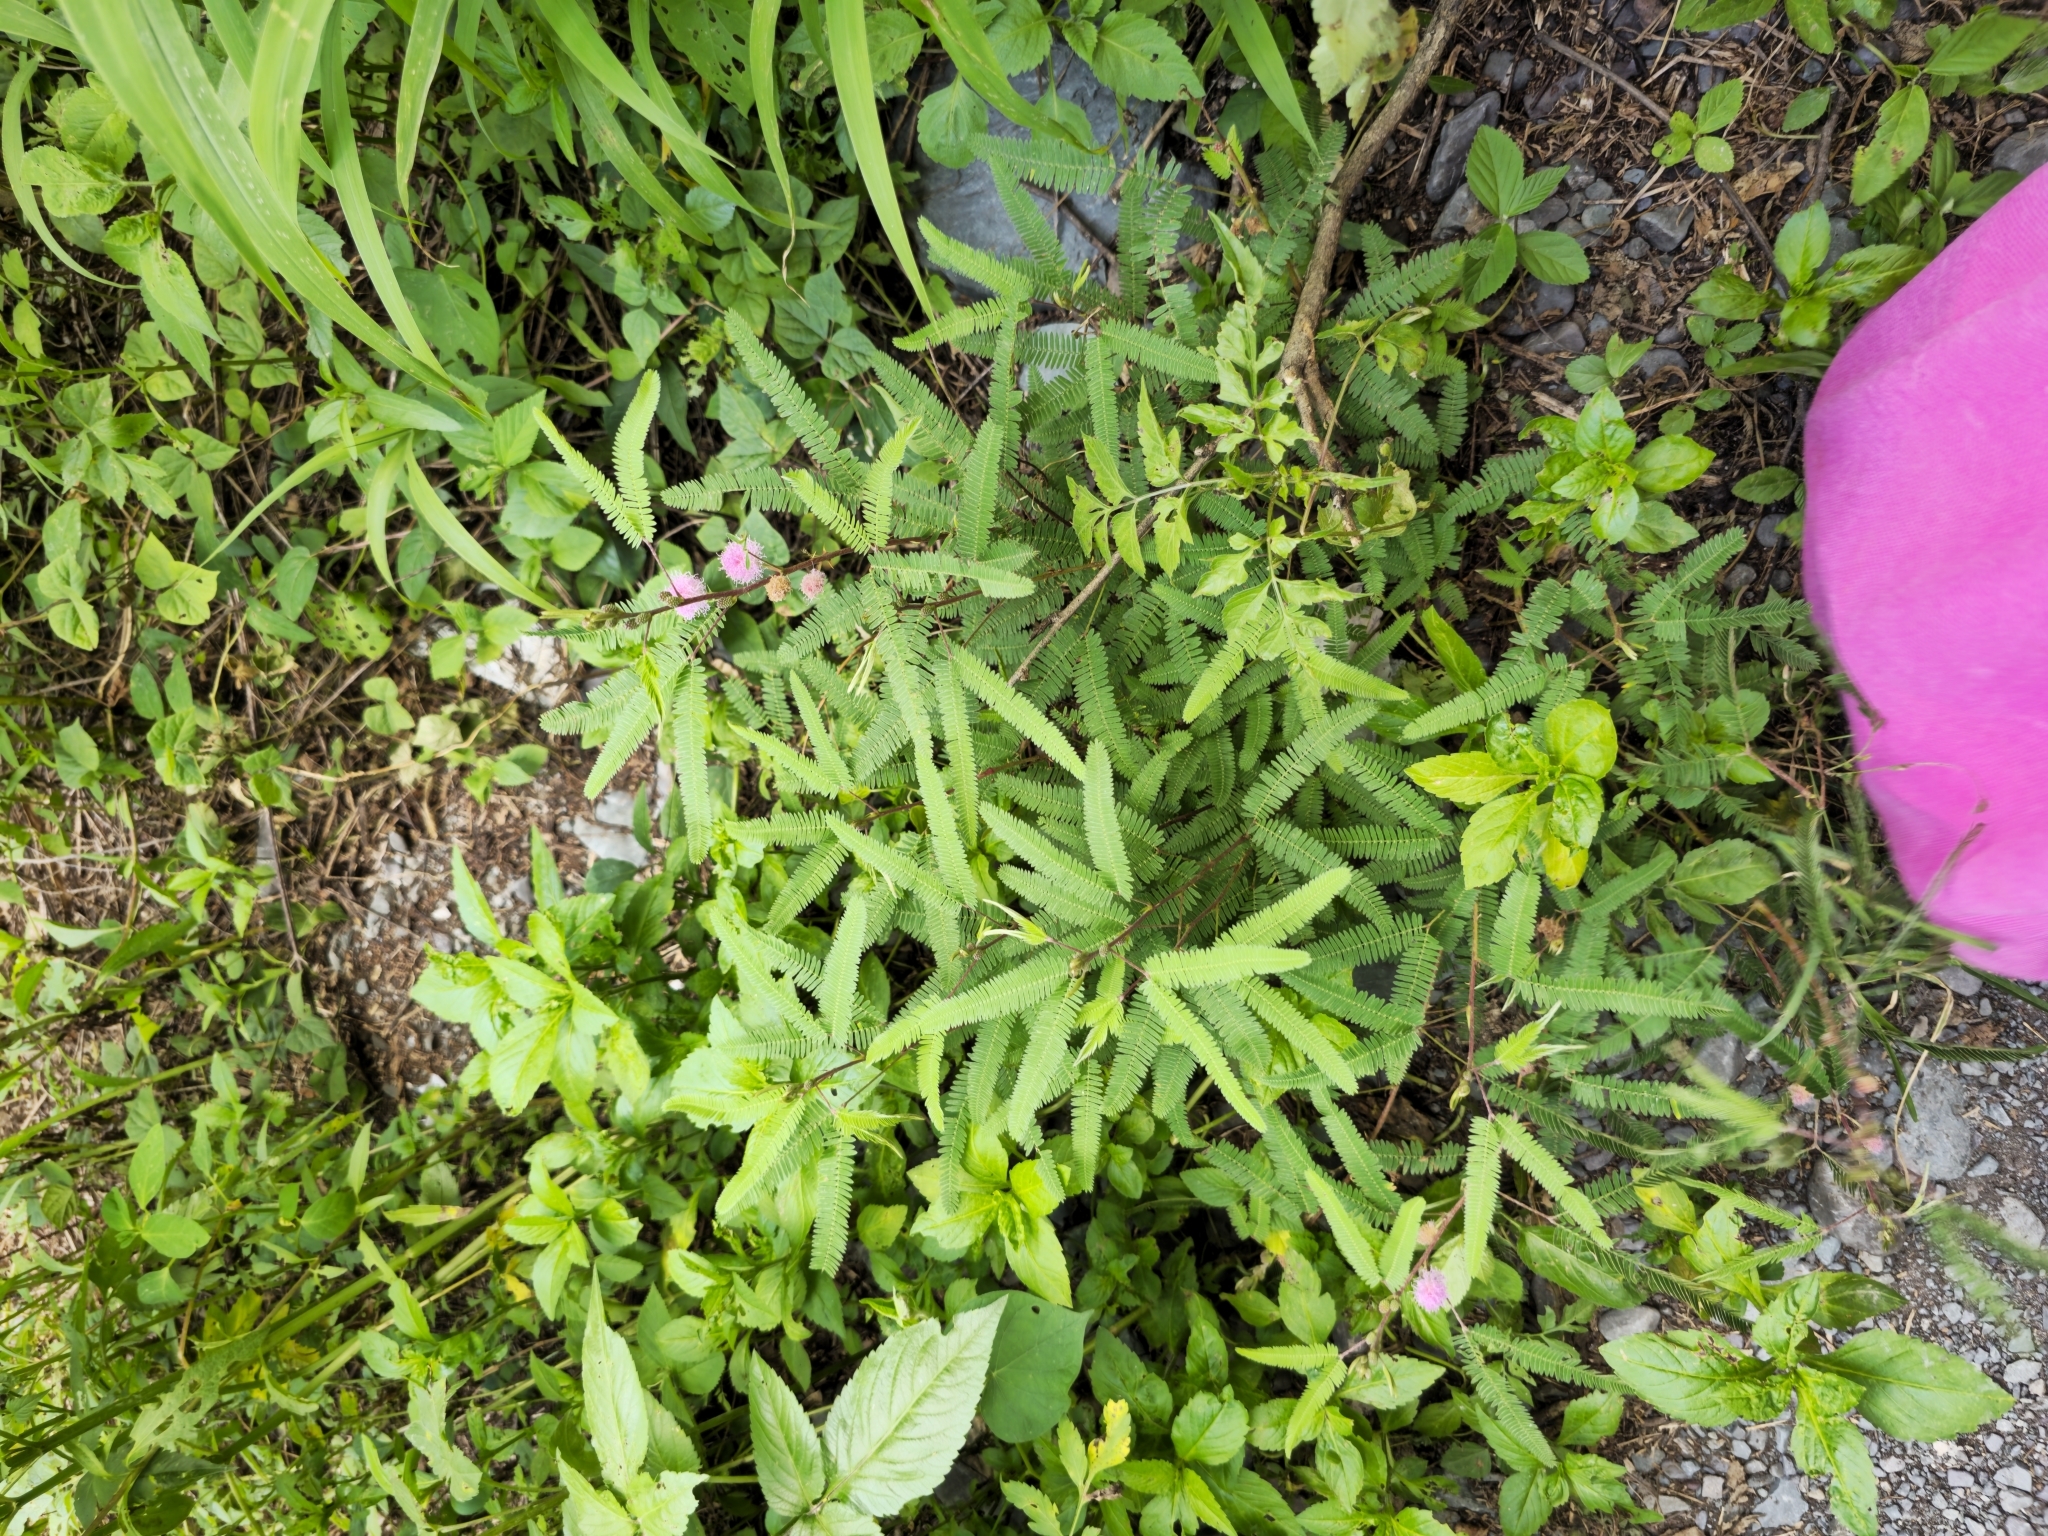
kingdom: Plantae
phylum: Tracheophyta
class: Magnoliopsida
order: Fabales
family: Fabaceae
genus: Mimosa
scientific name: Mimosa pudica
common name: Sensitive plant
